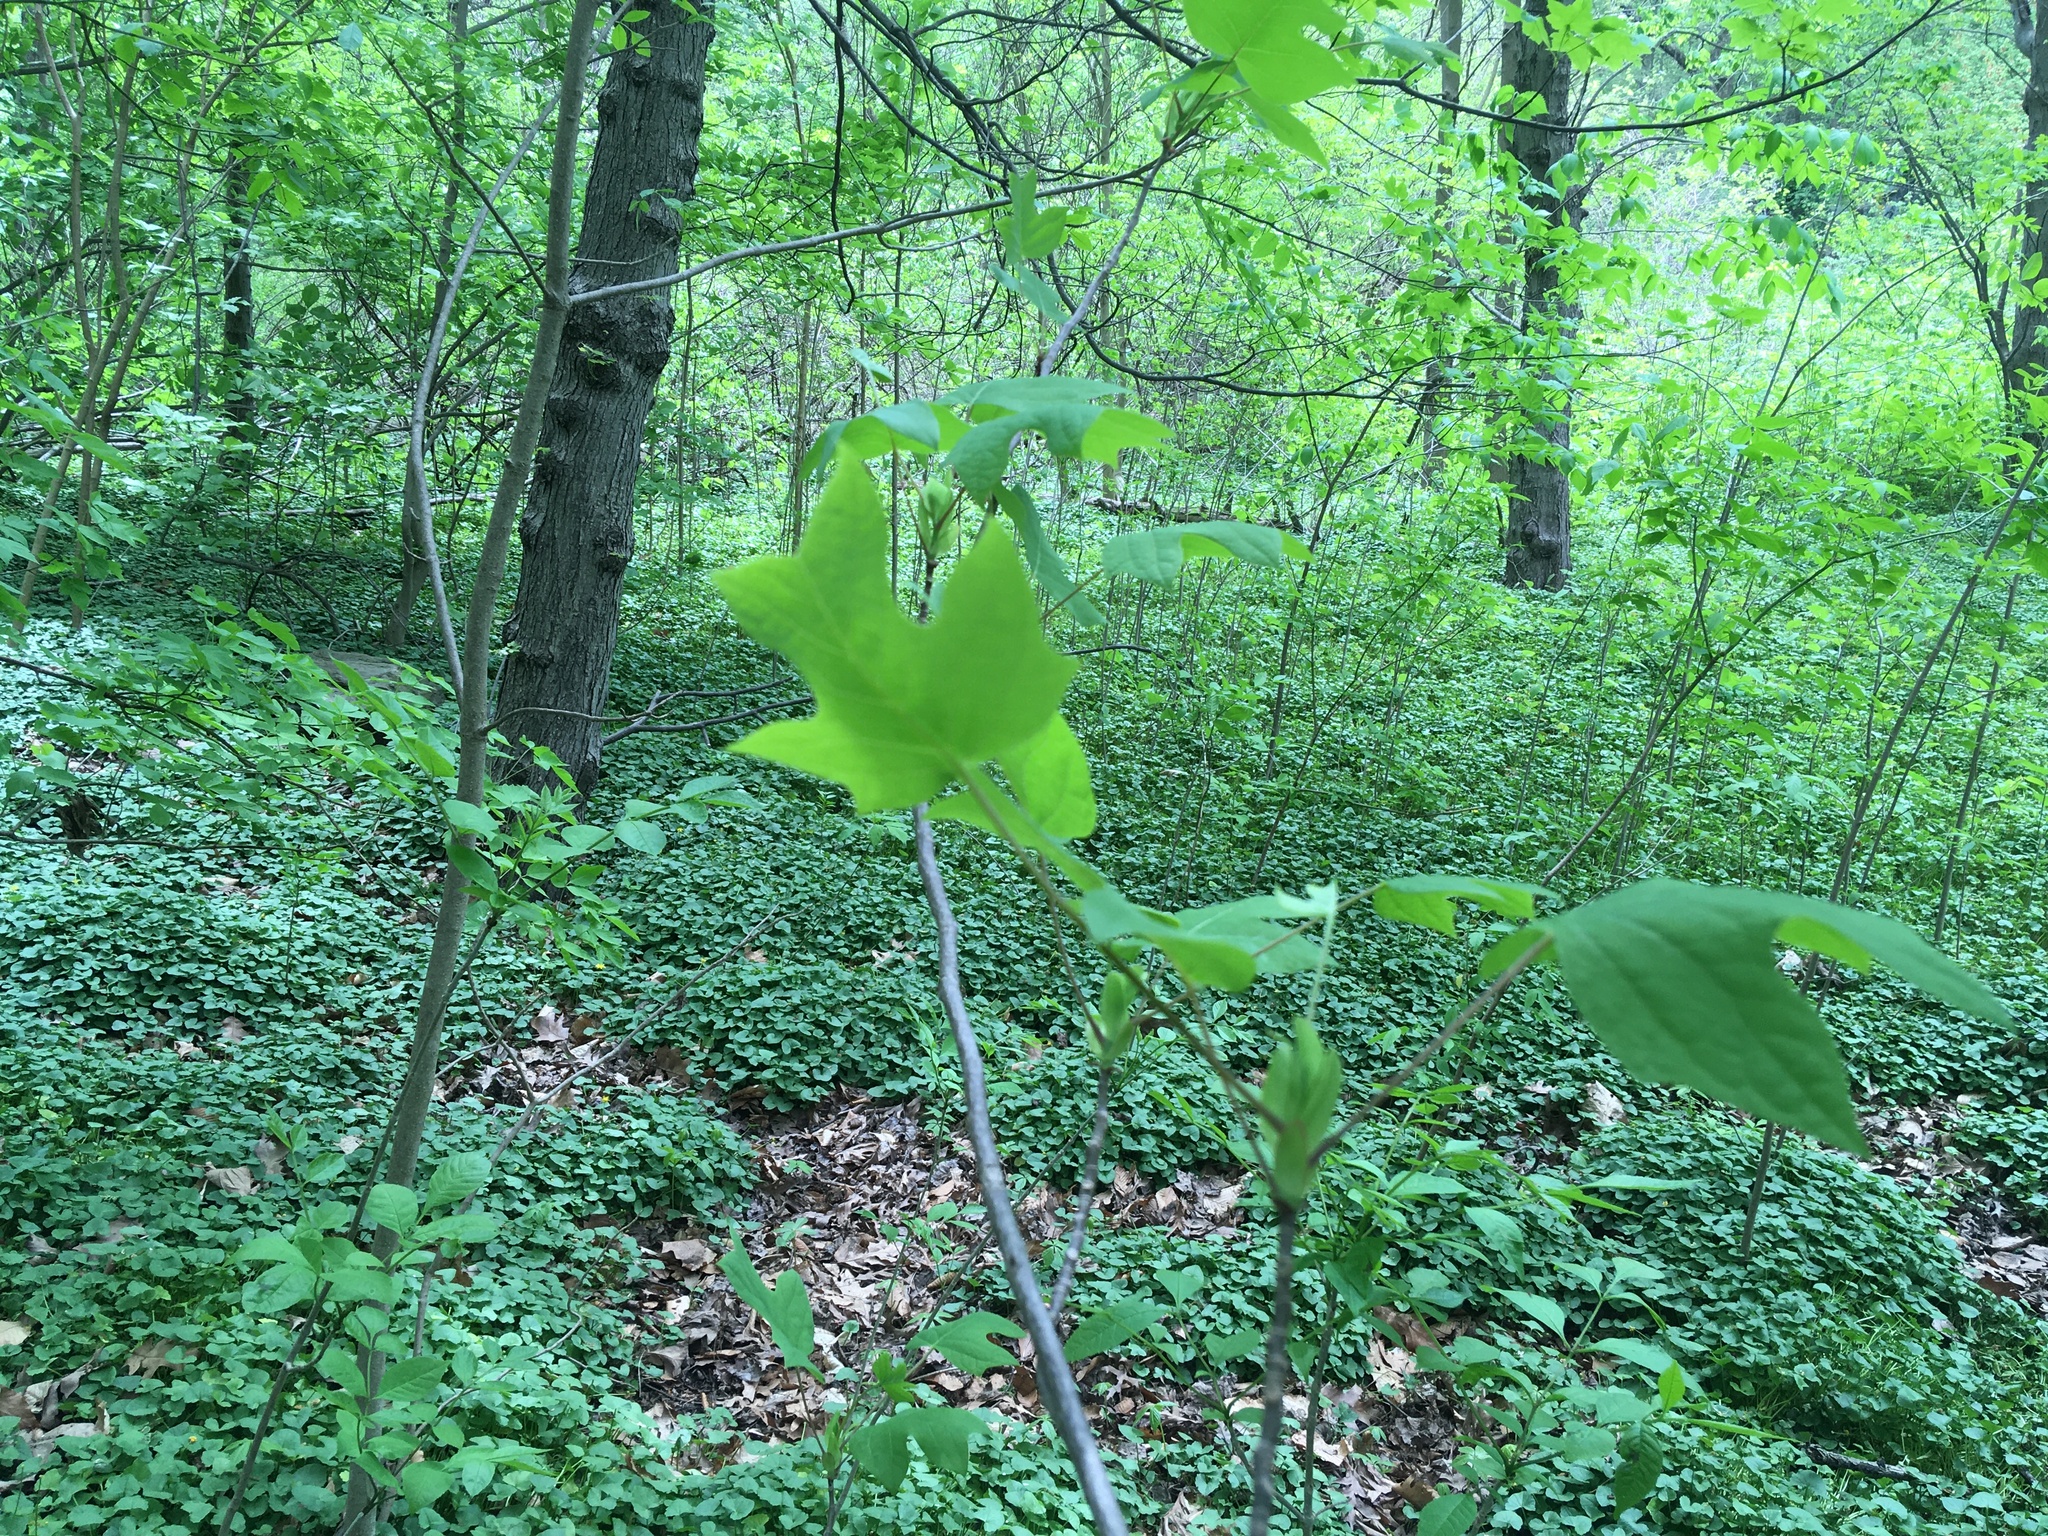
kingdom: Plantae
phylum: Tracheophyta
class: Magnoliopsida
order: Magnoliales
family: Magnoliaceae
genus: Liriodendron
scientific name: Liriodendron tulipifera
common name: Tulip tree
